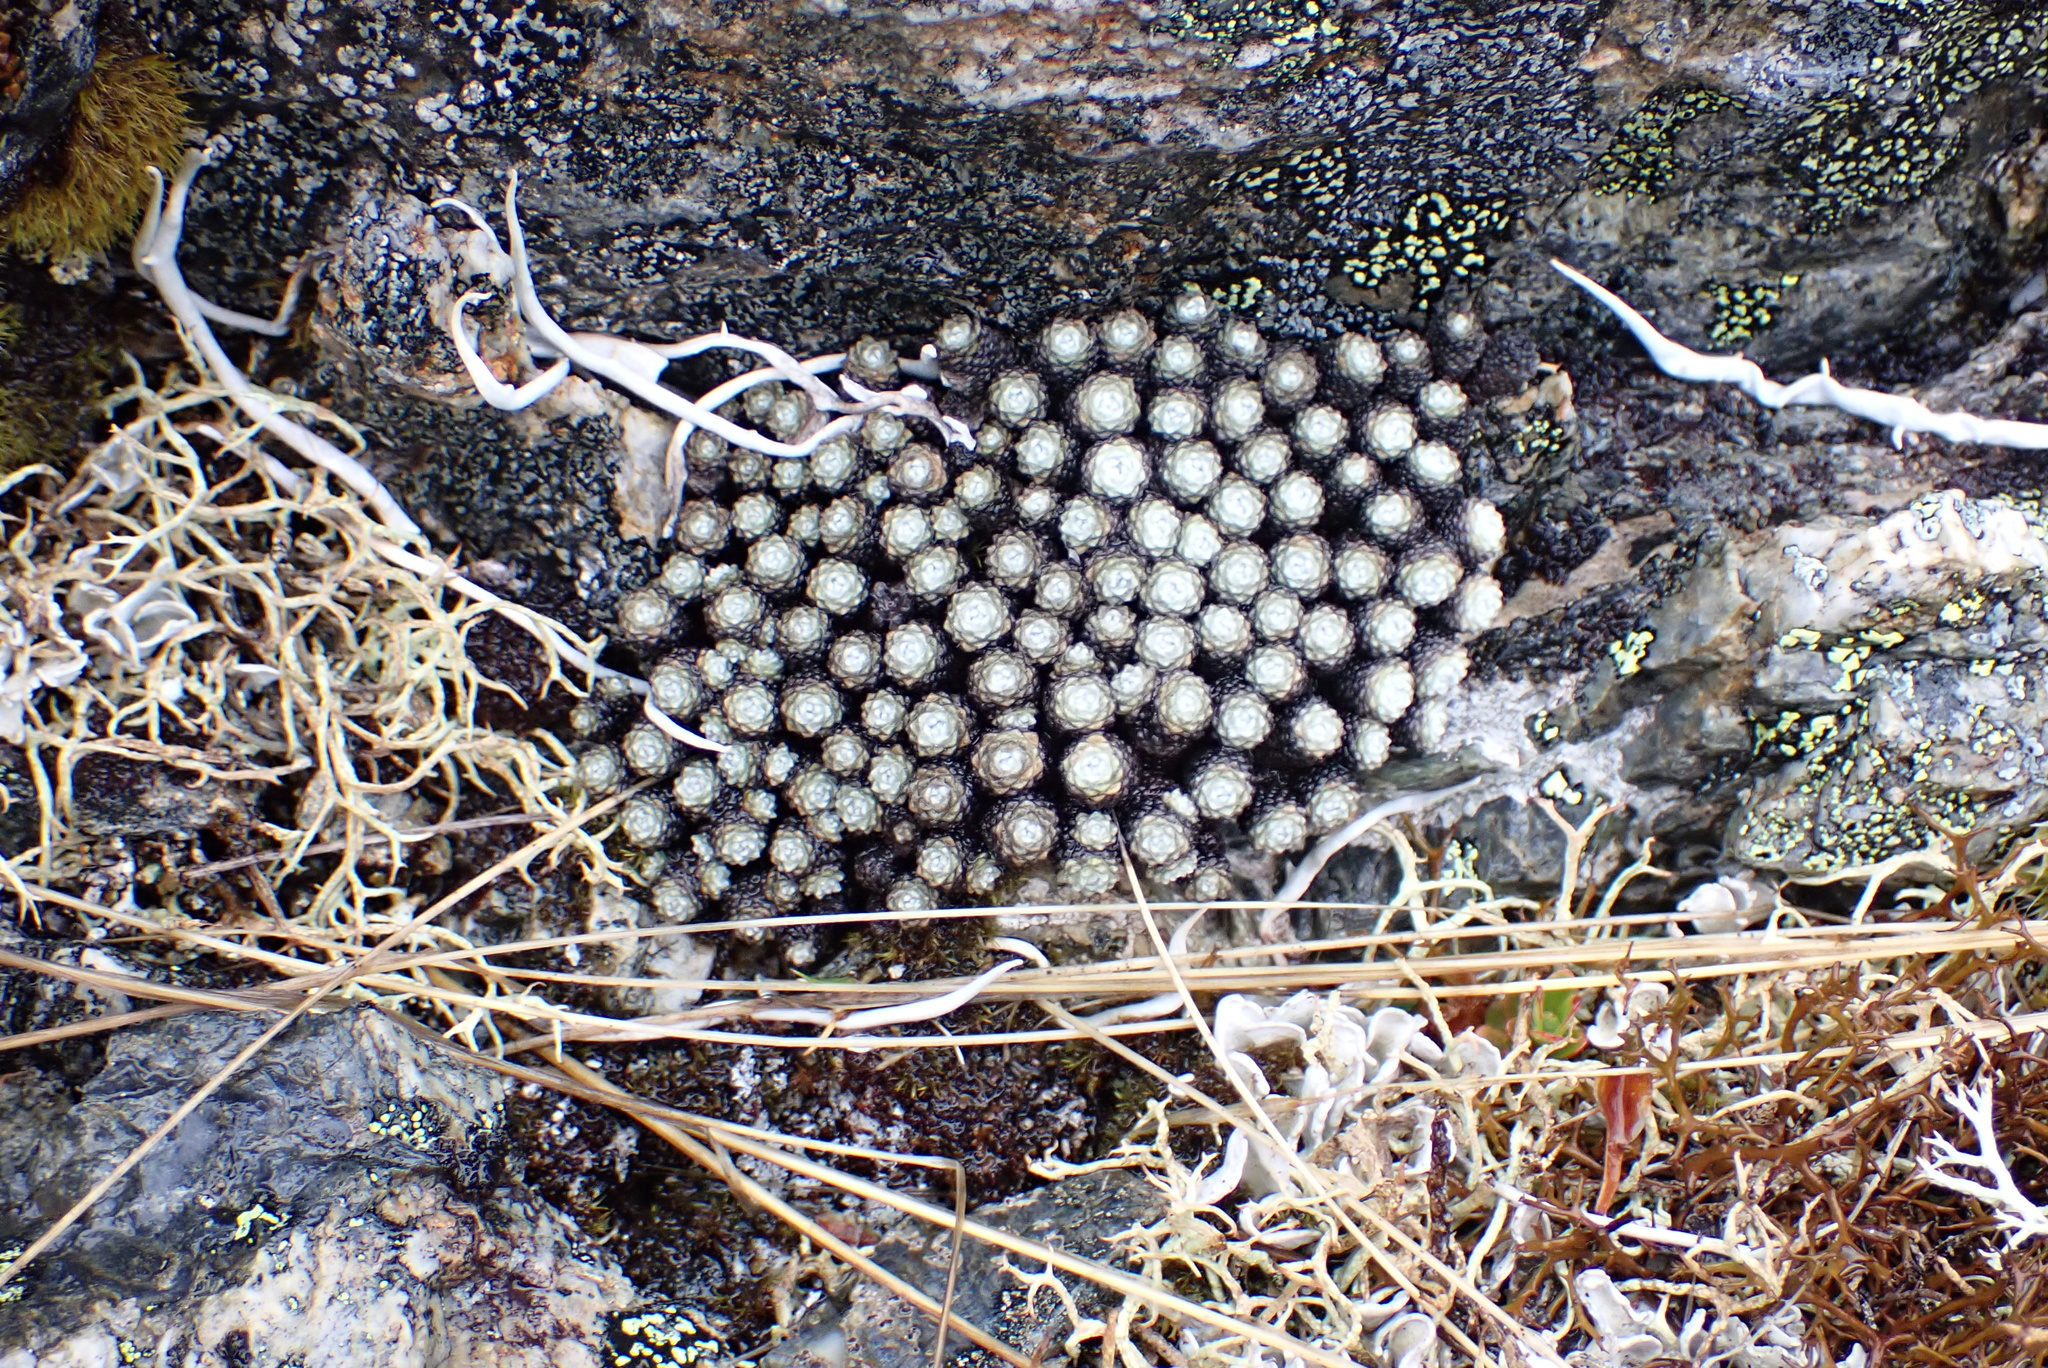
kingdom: Plantae
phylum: Tracheophyta
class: Magnoliopsida
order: Asterales
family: Asteraceae
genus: Raoulia
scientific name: Raoulia bryoides
